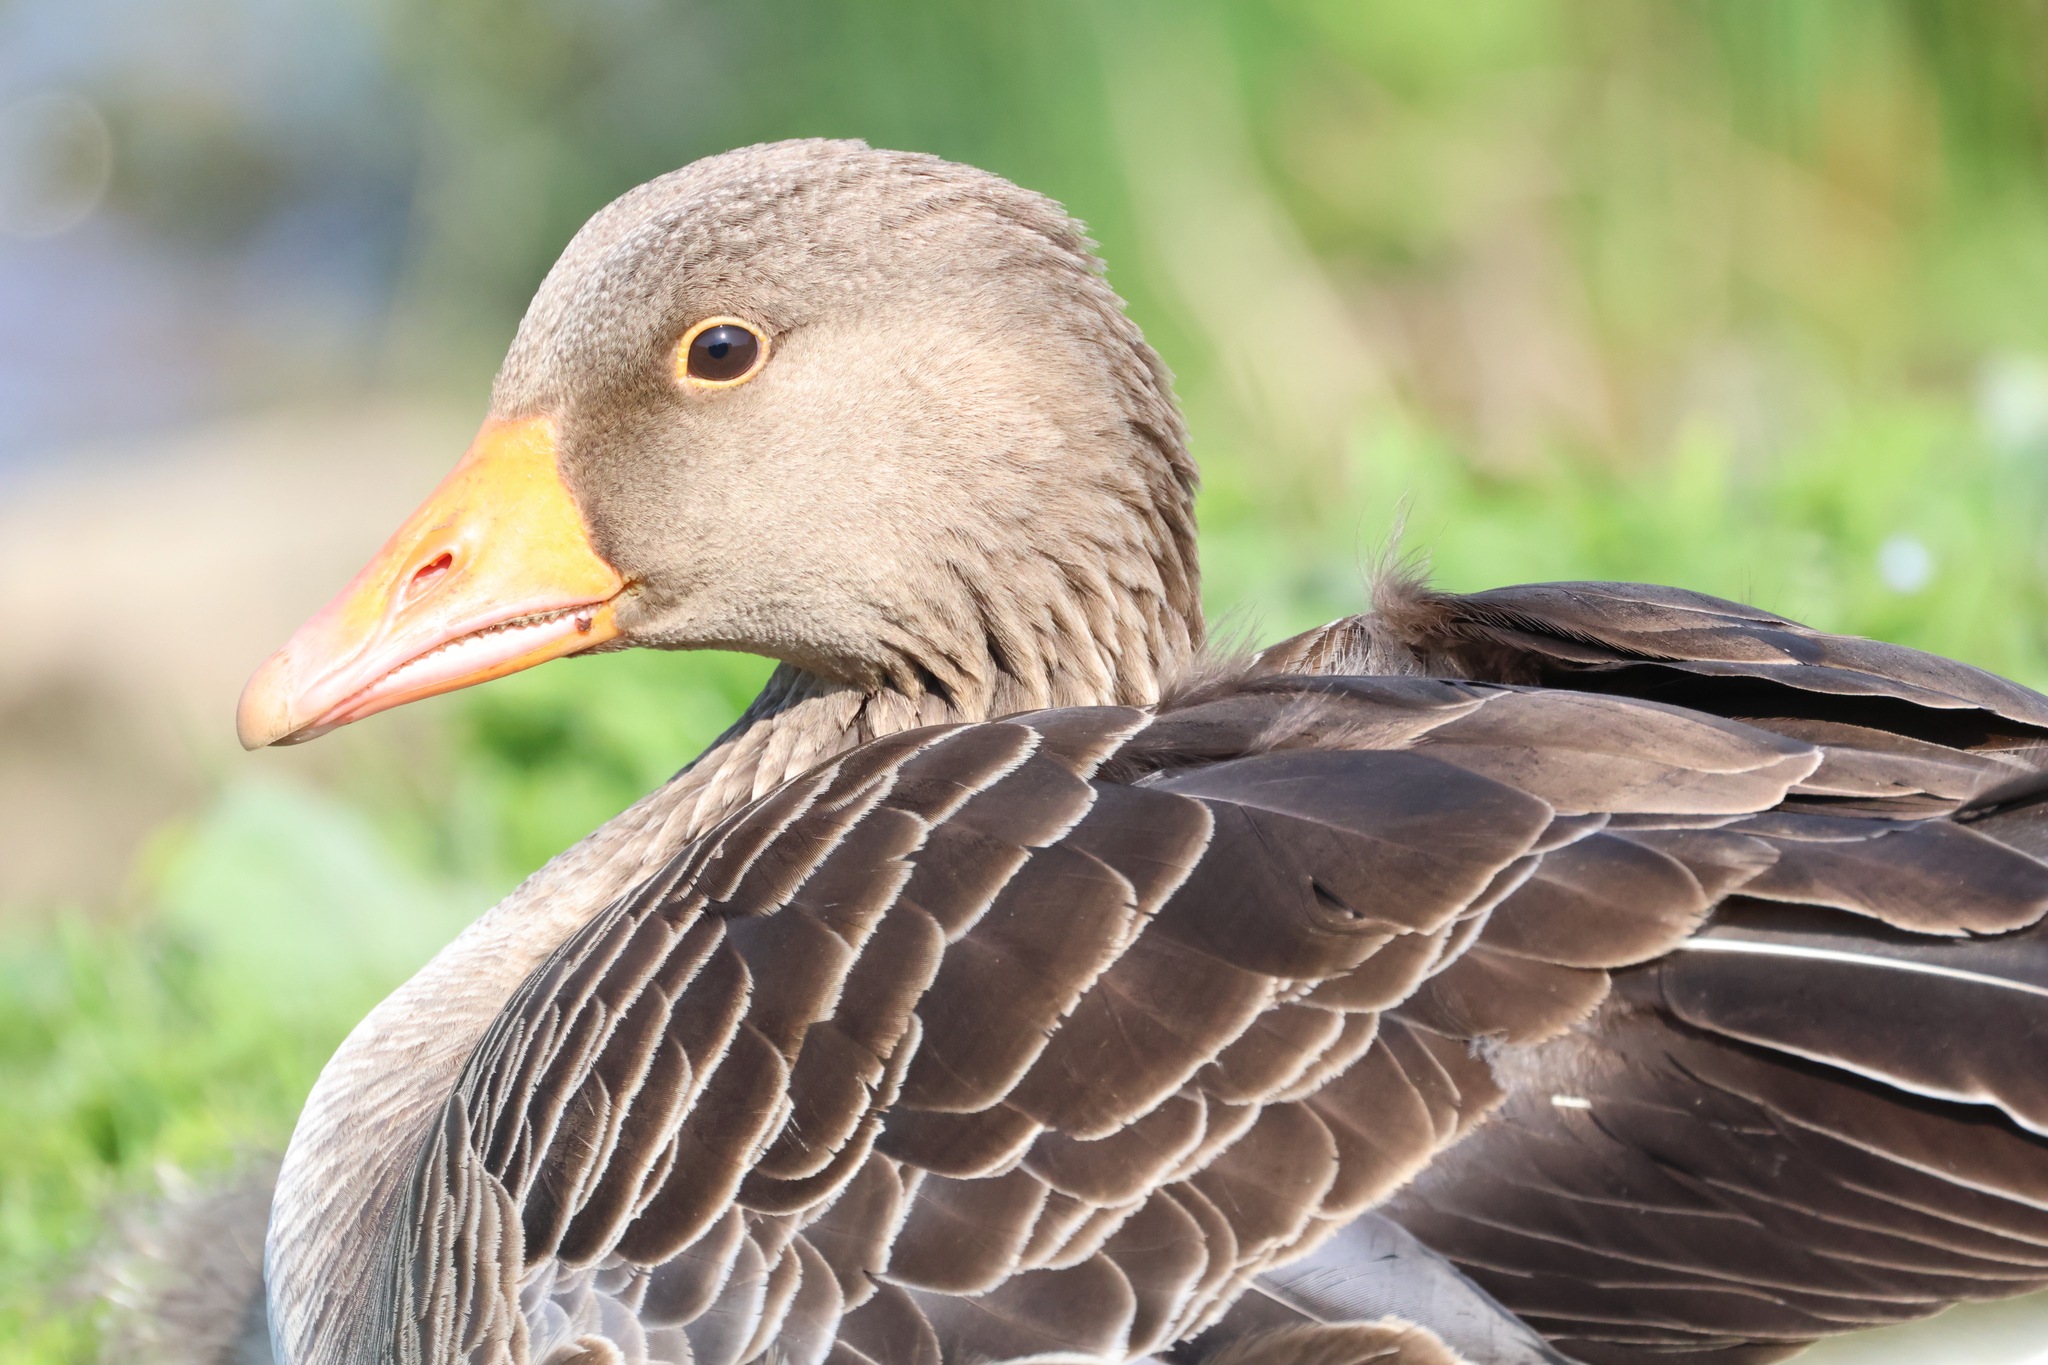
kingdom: Animalia
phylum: Chordata
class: Aves
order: Anseriformes
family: Anatidae
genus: Anser
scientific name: Anser anser
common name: Greylag goose
